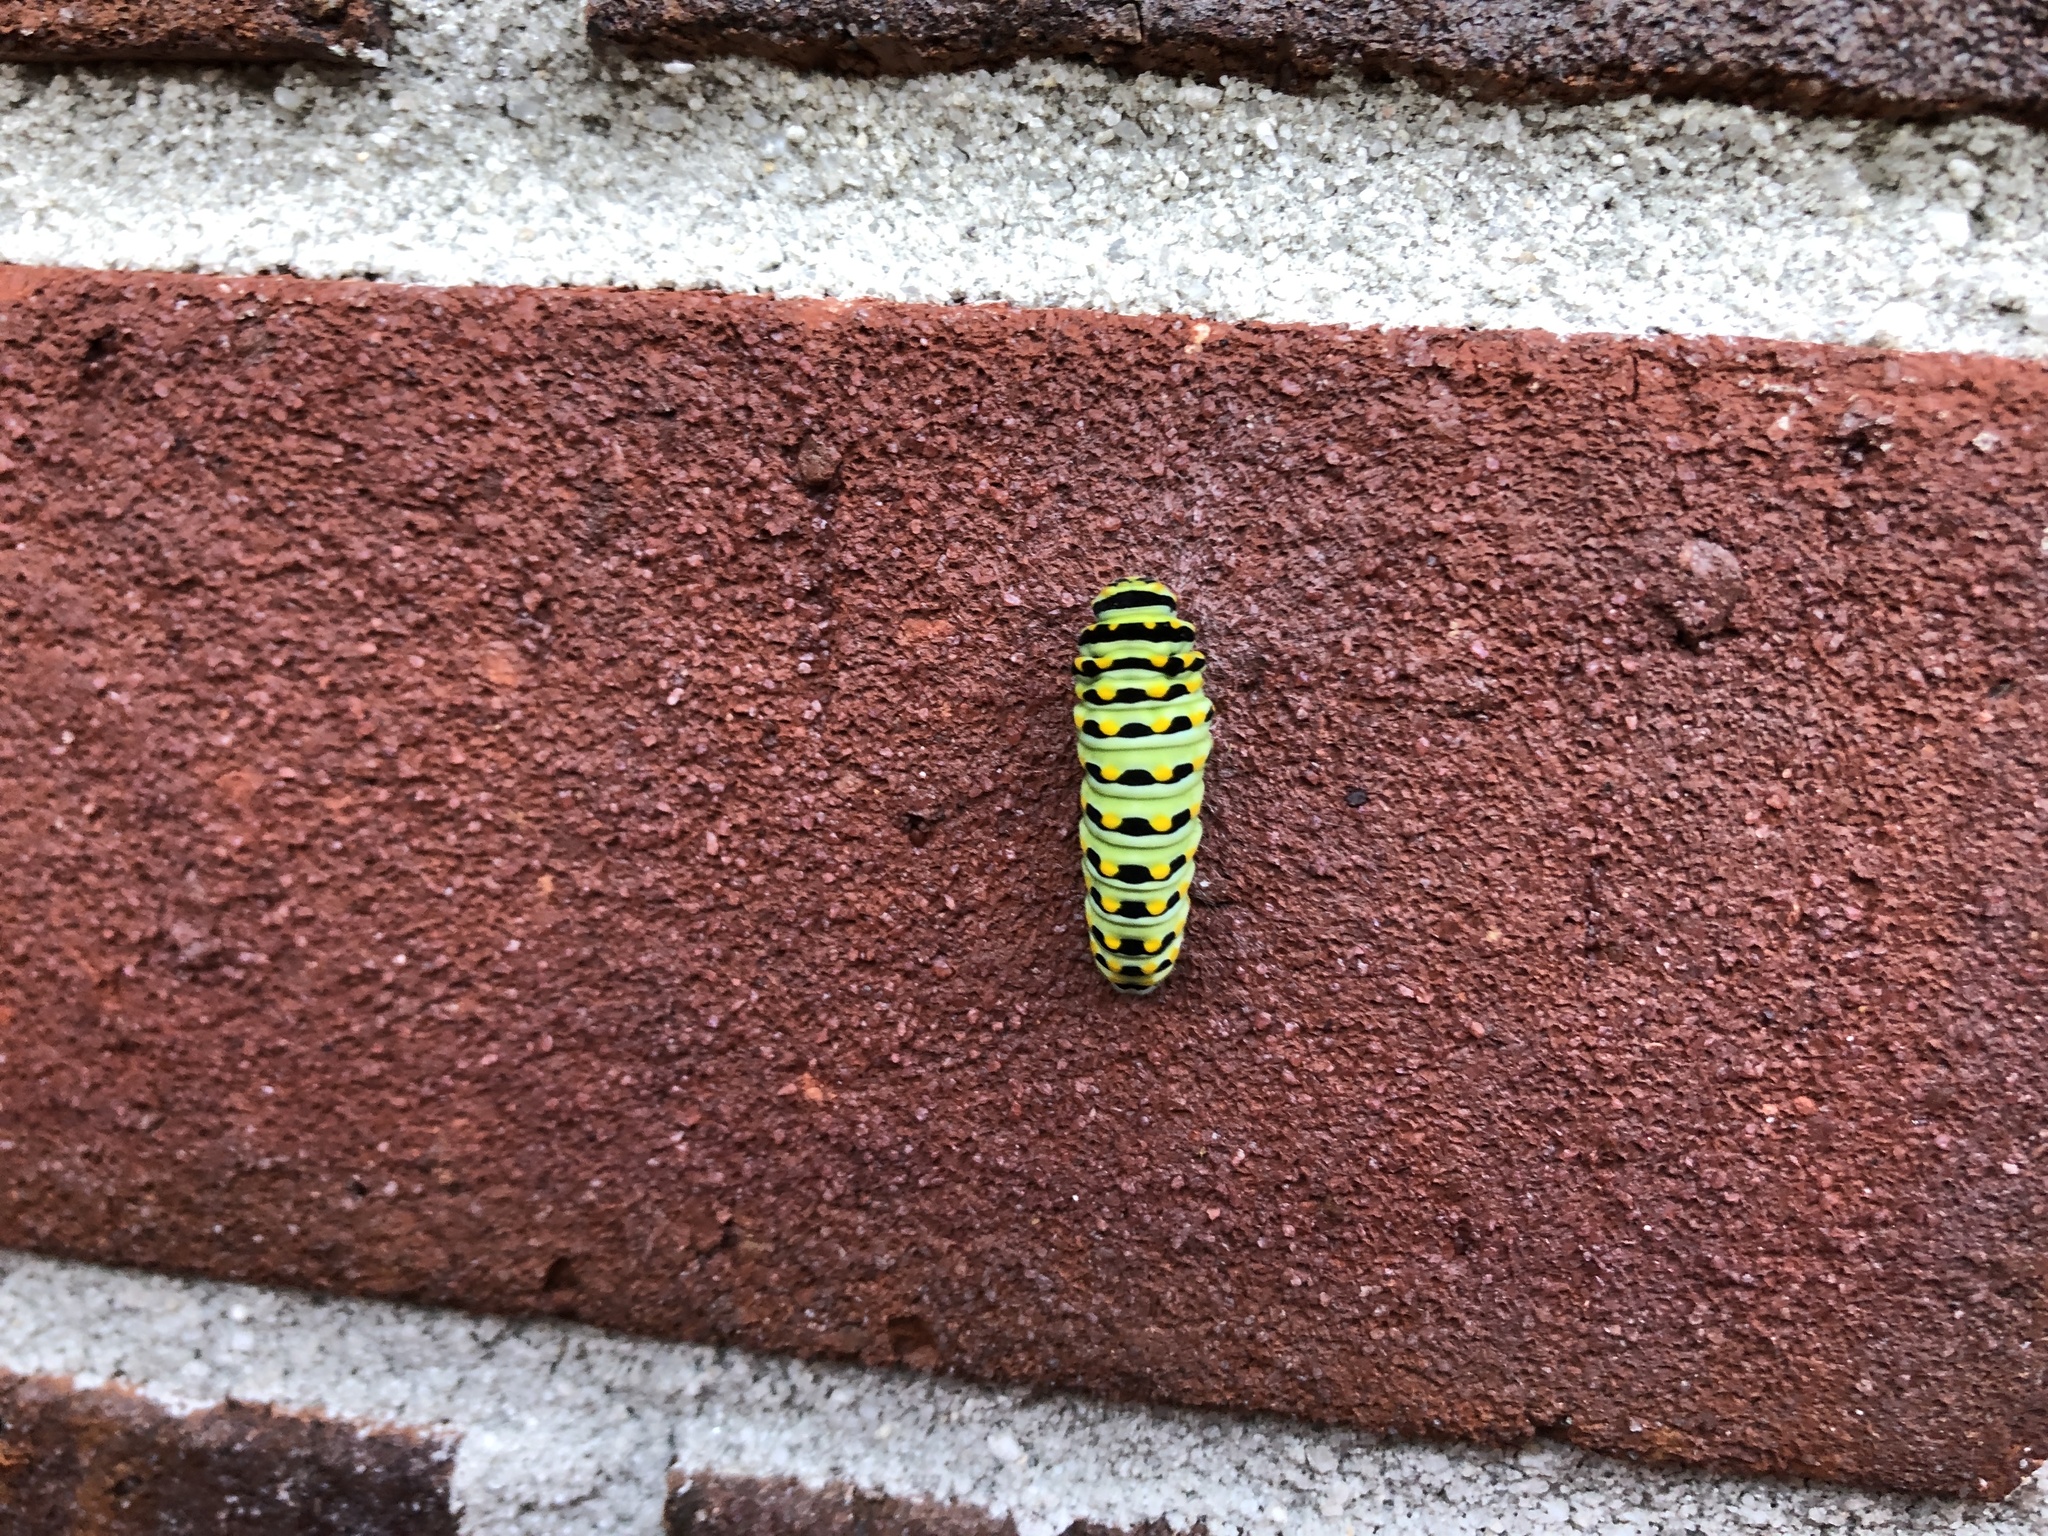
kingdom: Animalia
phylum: Arthropoda
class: Insecta
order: Lepidoptera
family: Papilionidae
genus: Papilio
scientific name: Papilio polyxenes
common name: Black swallowtail
